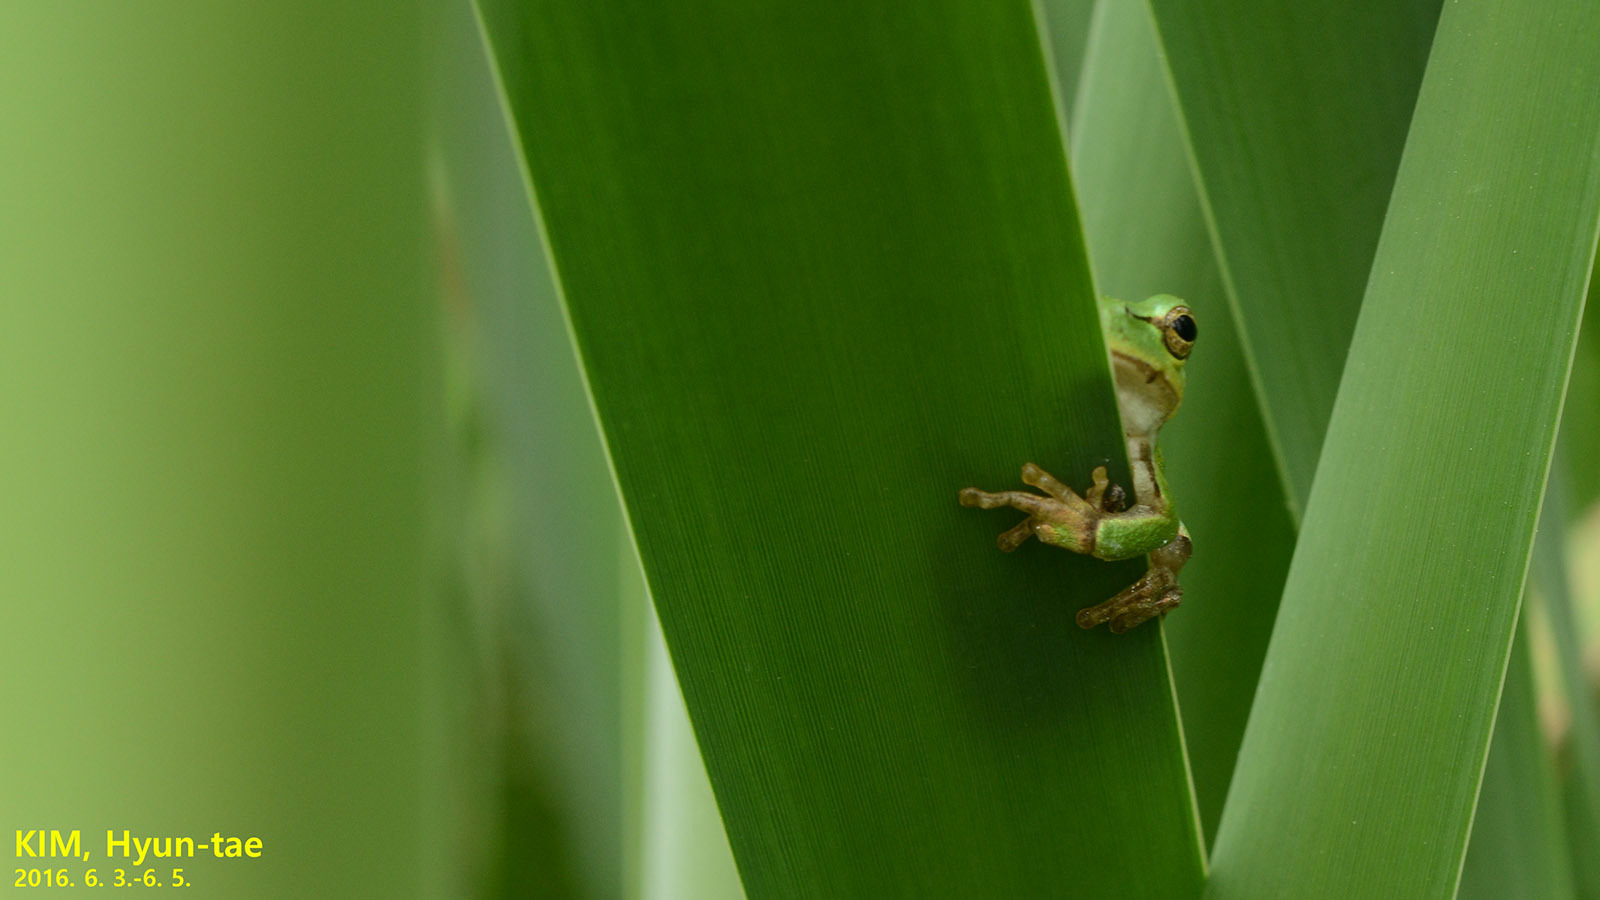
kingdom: Animalia
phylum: Chordata
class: Amphibia
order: Anura
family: Hylidae
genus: Dryophytes
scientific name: Dryophytes japonicus
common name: Japanese treefrog
